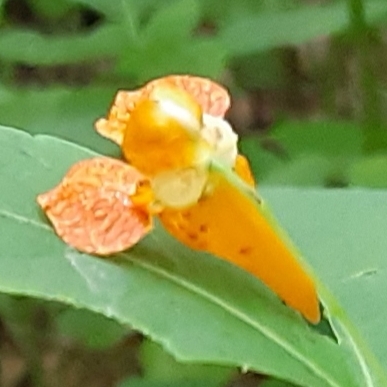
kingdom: Plantae
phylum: Tracheophyta
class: Magnoliopsida
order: Ericales
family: Balsaminaceae
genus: Impatiens
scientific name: Impatiens capensis
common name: Orange balsam
